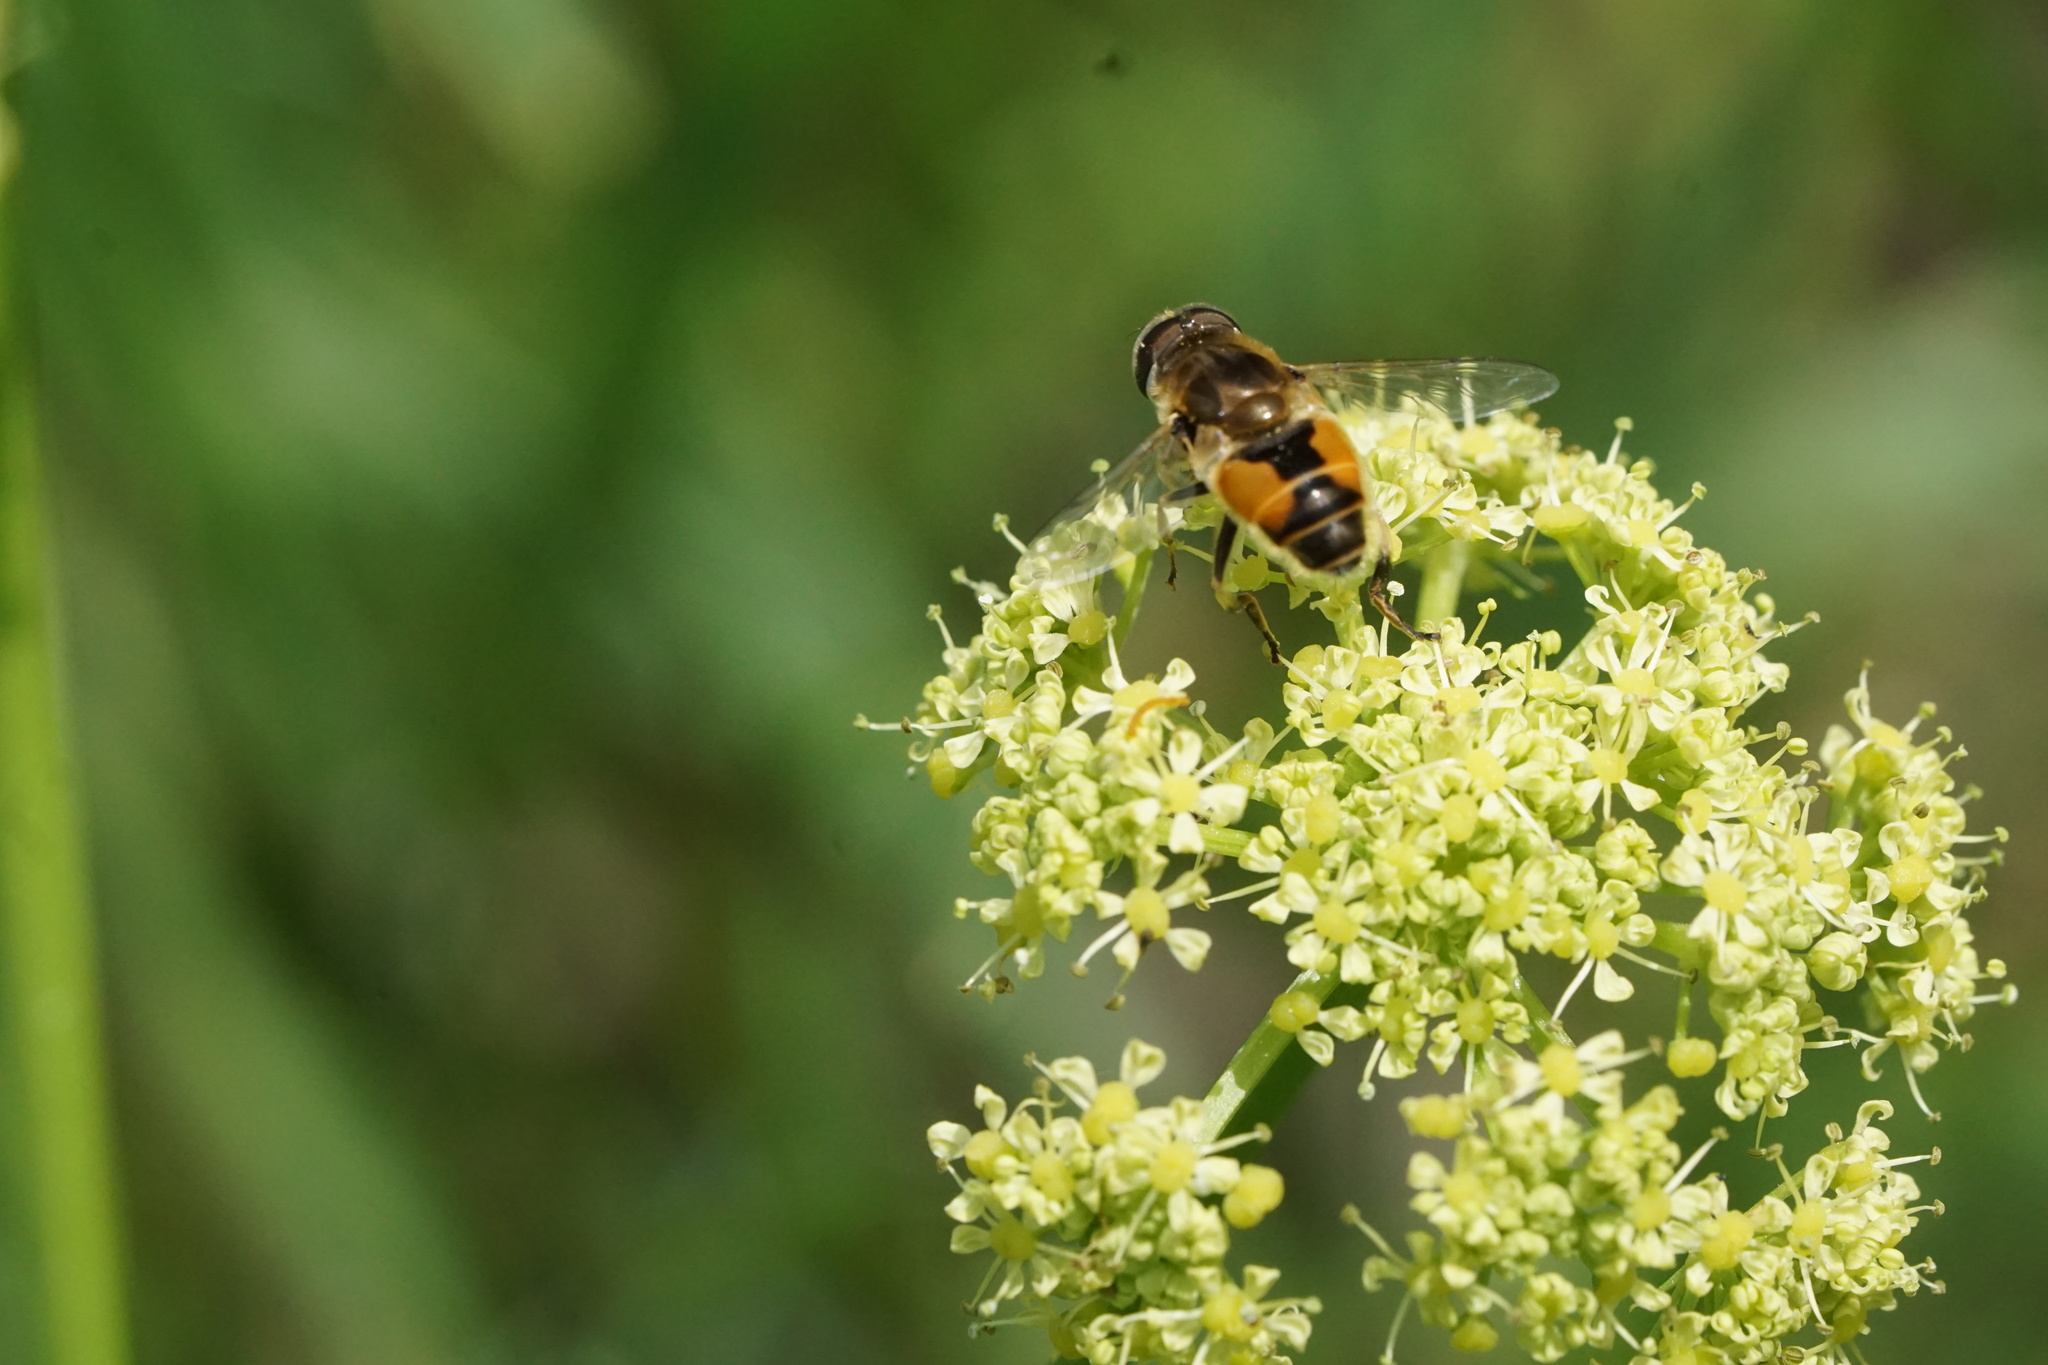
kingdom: Animalia
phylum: Arthropoda
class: Insecta
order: Diptera
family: Syrphidae
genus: Eristalis
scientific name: Eristalis arbustorum
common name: Hover fly
